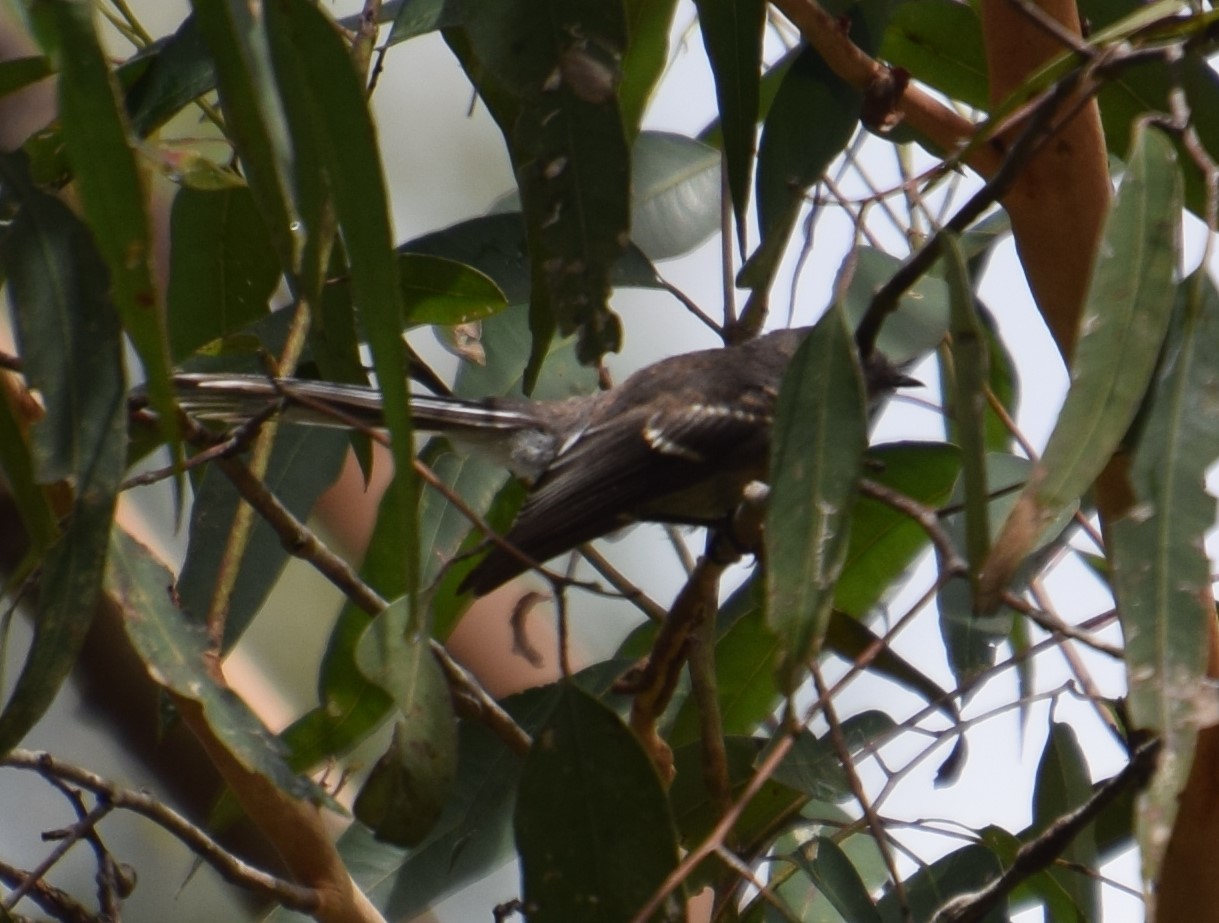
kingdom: Animalia
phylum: Chordata
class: Aves
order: Passeriformes
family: Rhipiduridae
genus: Rhipidura
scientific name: Rhipidura albiscapa
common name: Grey fantail
